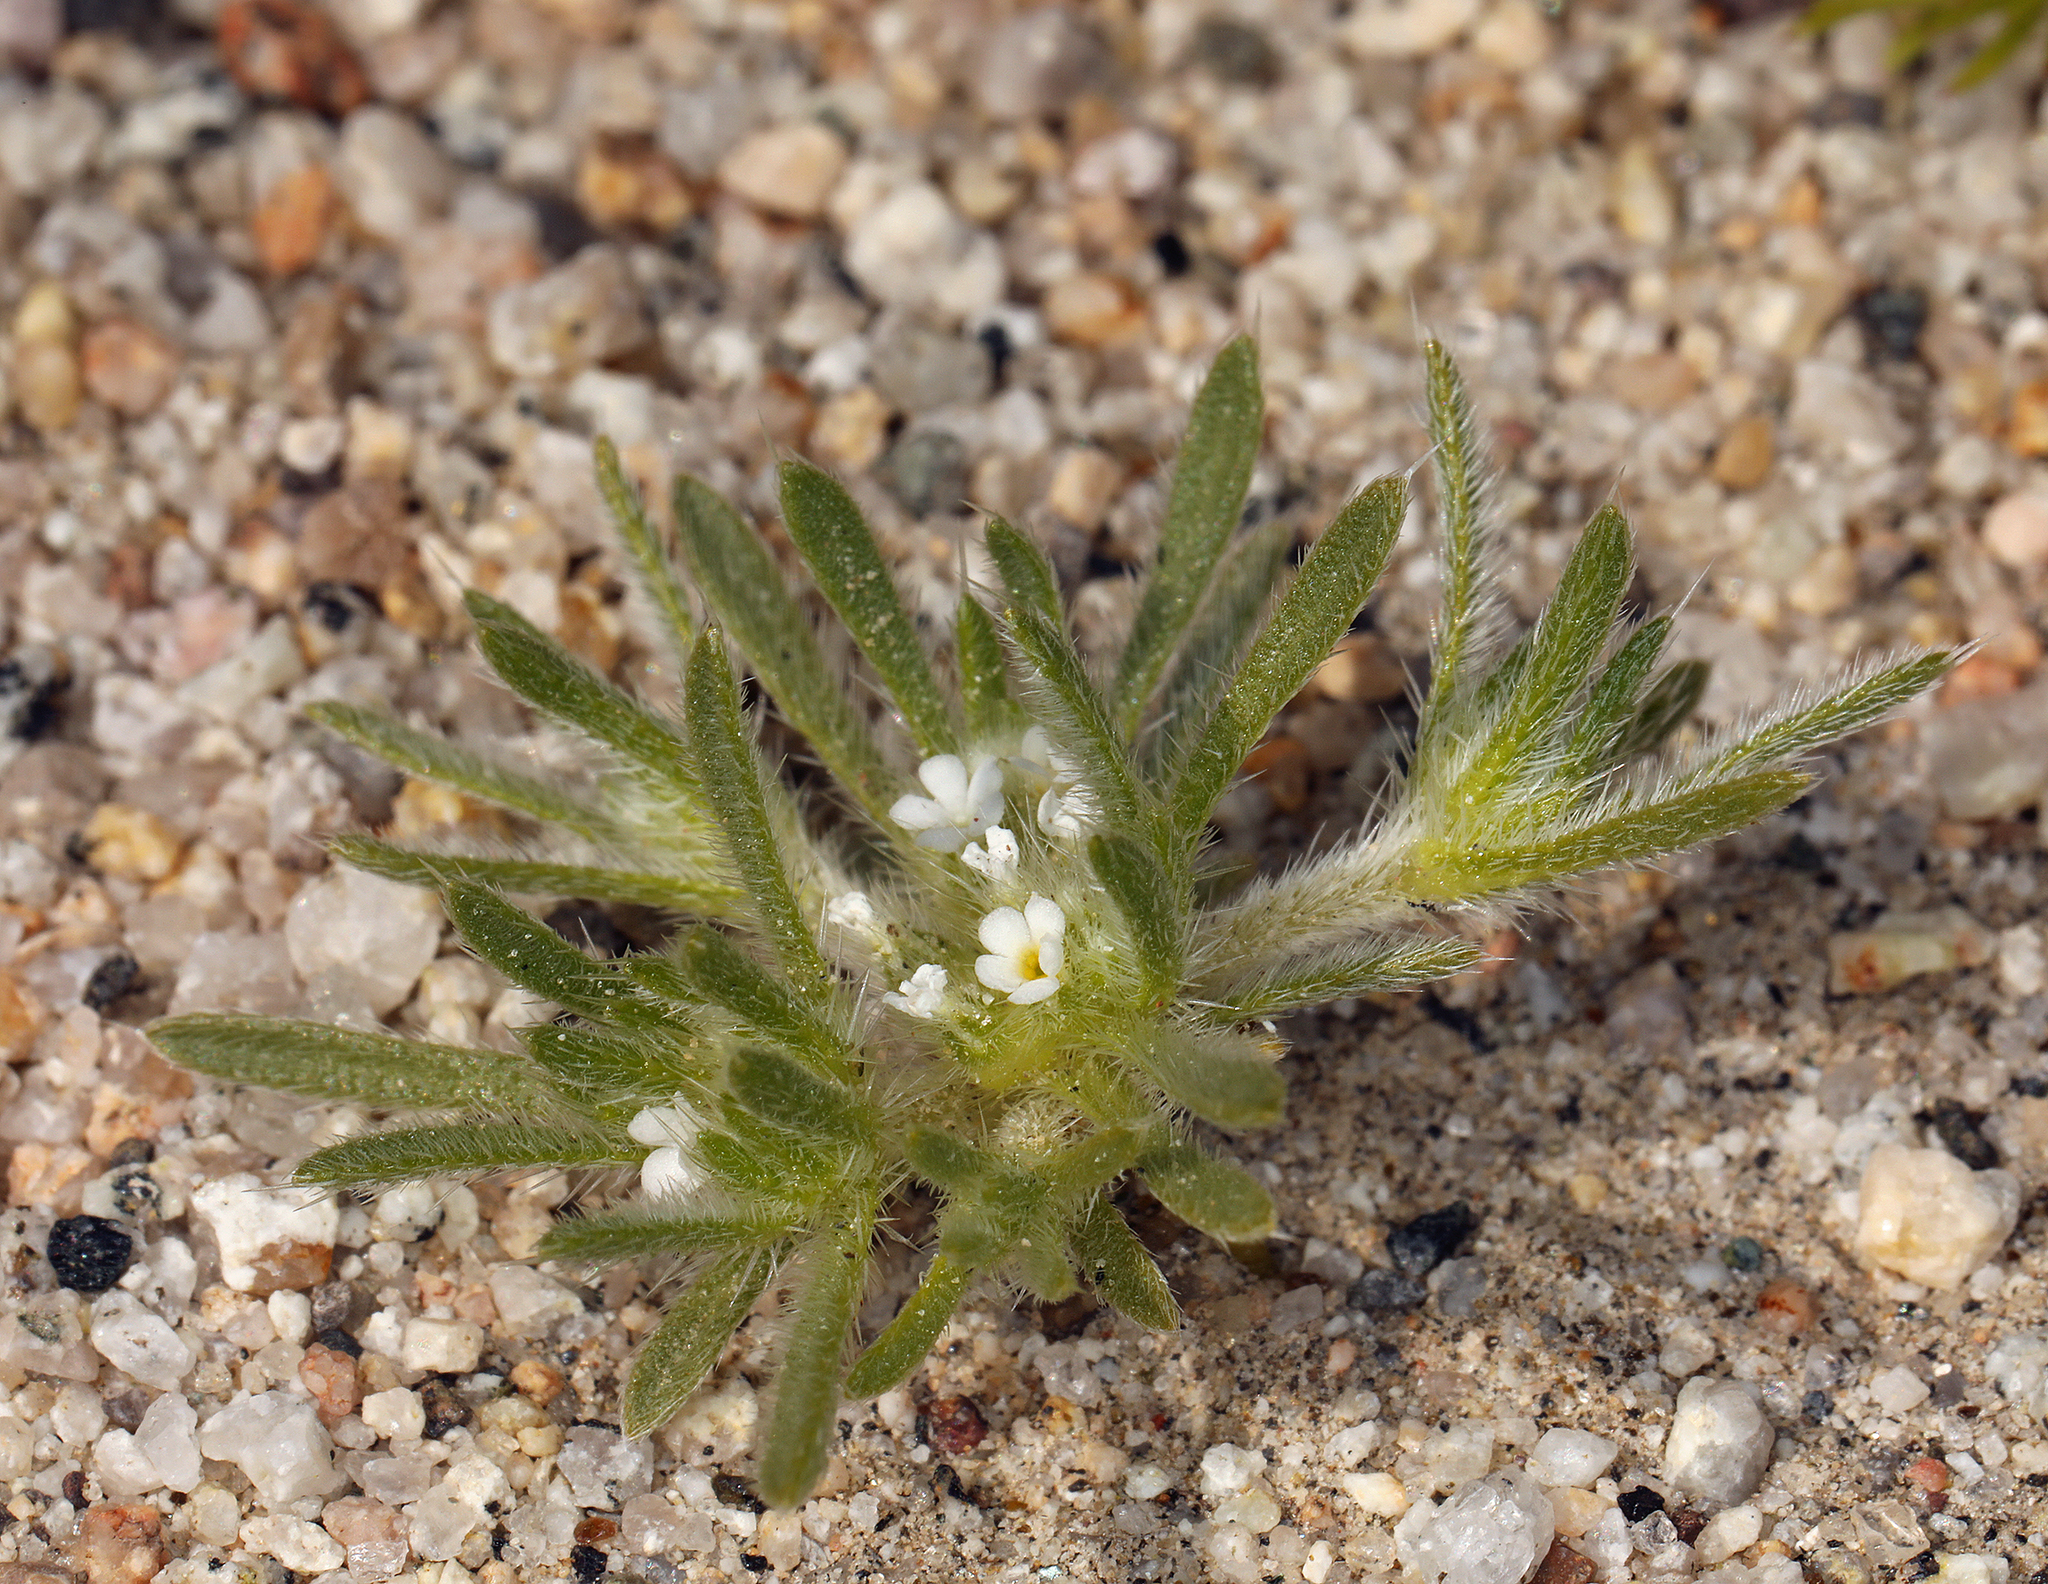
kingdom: Plantae
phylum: Tracheophyta
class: Magnoliopsida
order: Boraginales
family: Boraginaceae
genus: Greeneocharis
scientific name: Greeneocharis circumscissa
